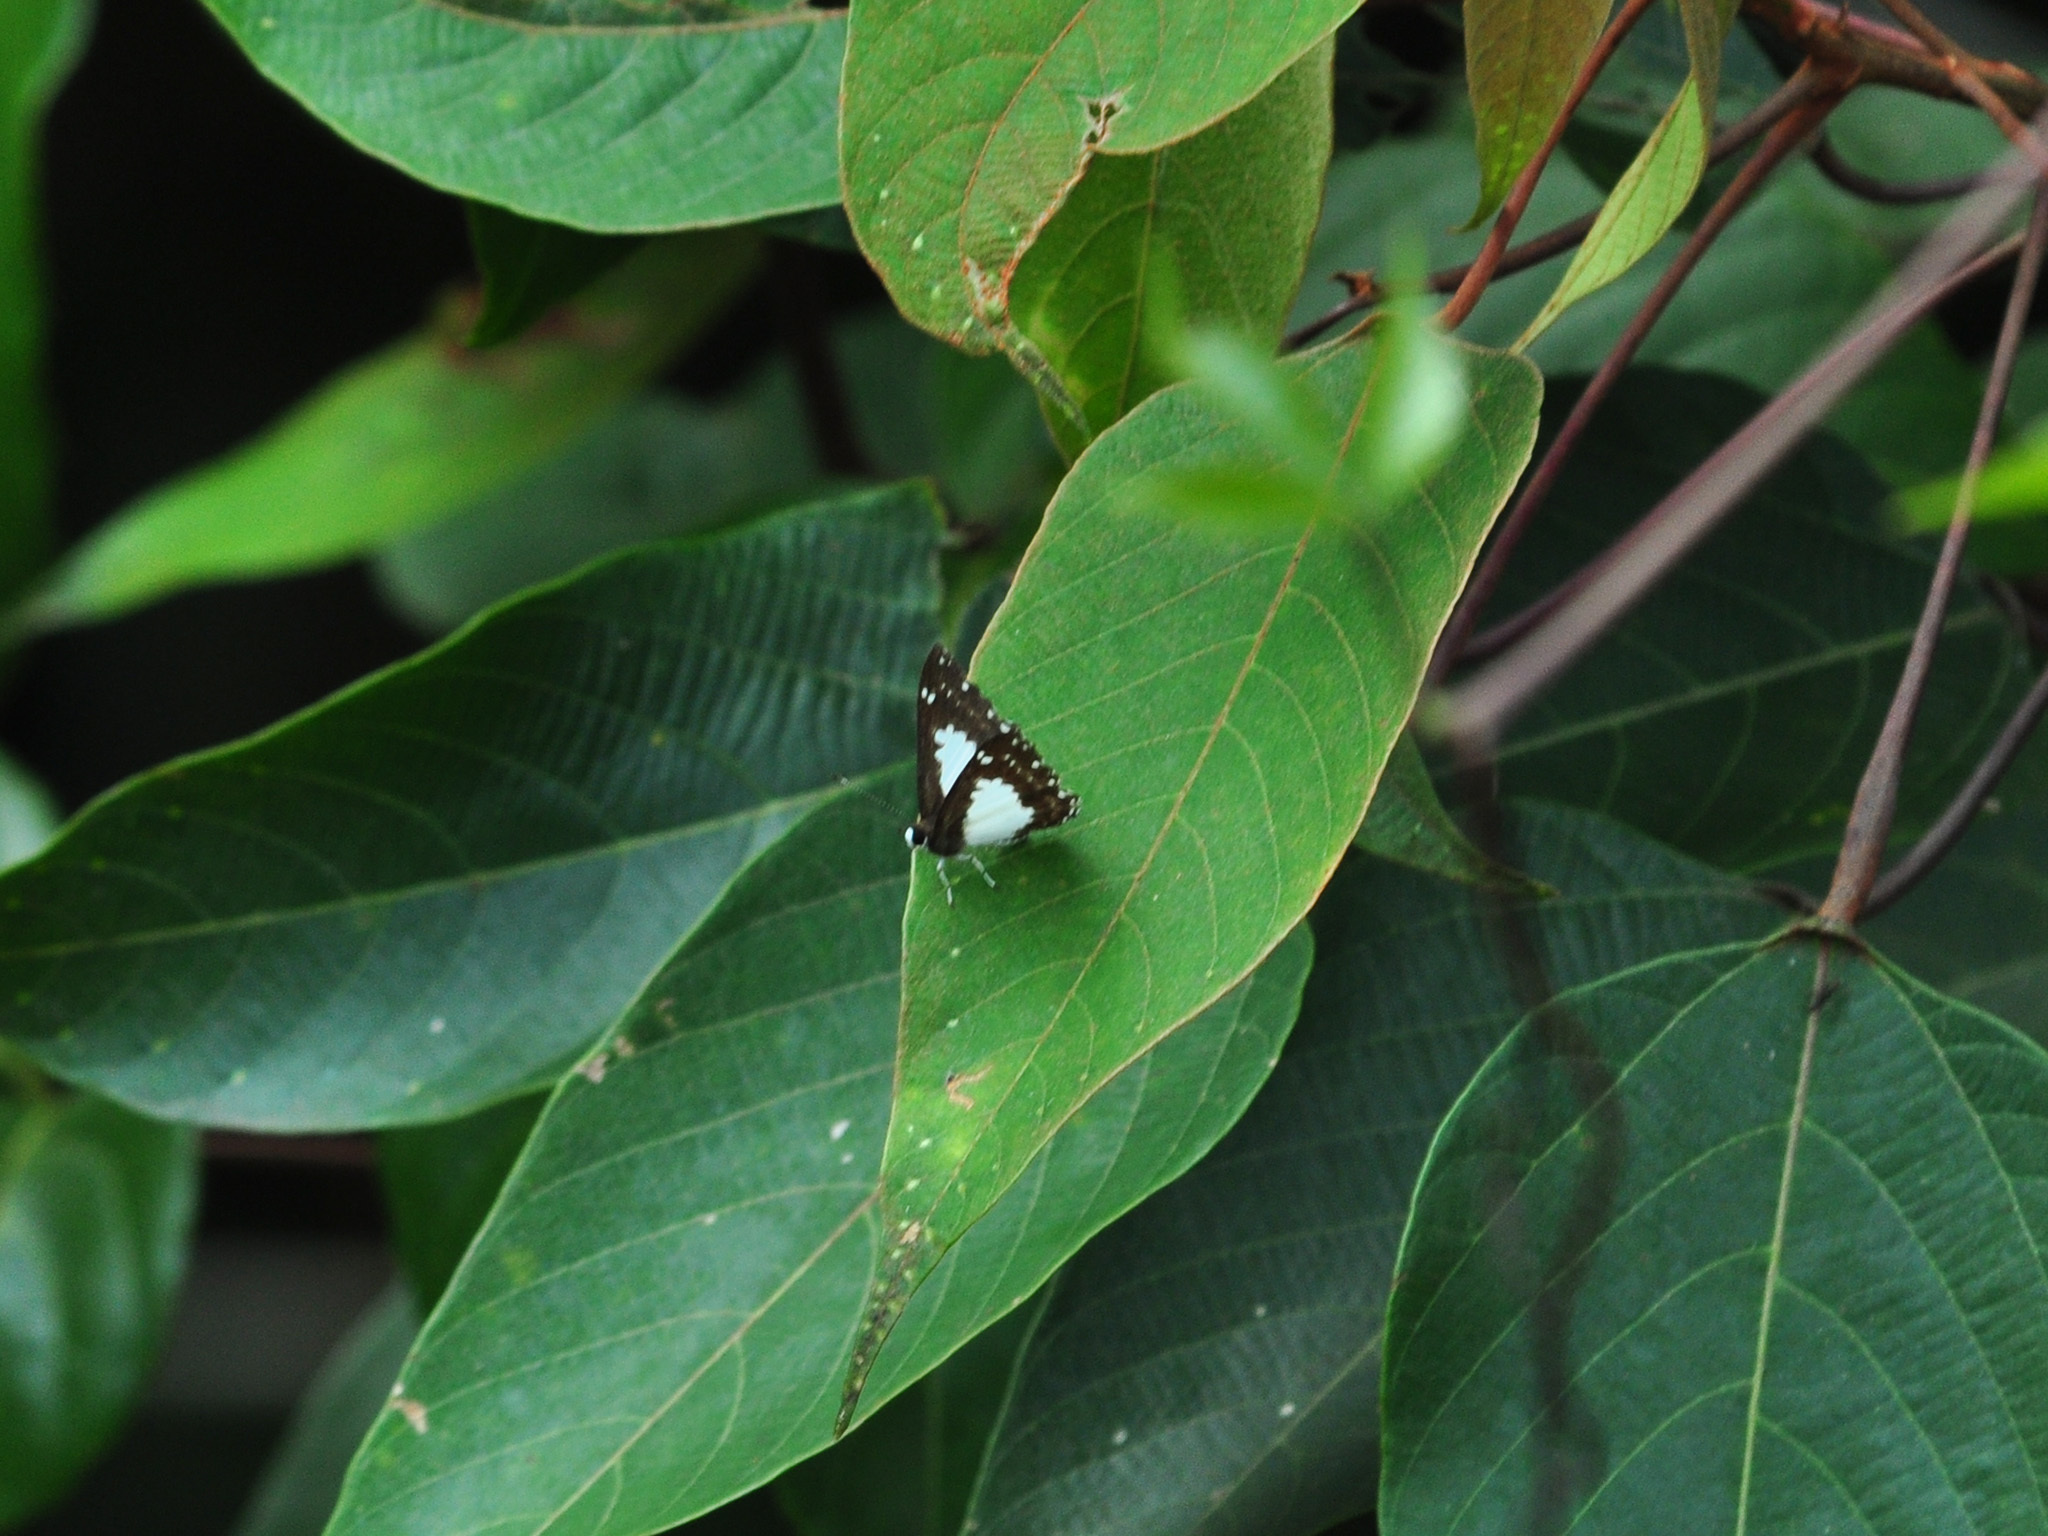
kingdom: Animalia
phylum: Arthropoda
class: Insecta
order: Lepidoptera
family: Riodinidae
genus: Stiboges
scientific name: Stiboges nymphidia
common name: Columbine
